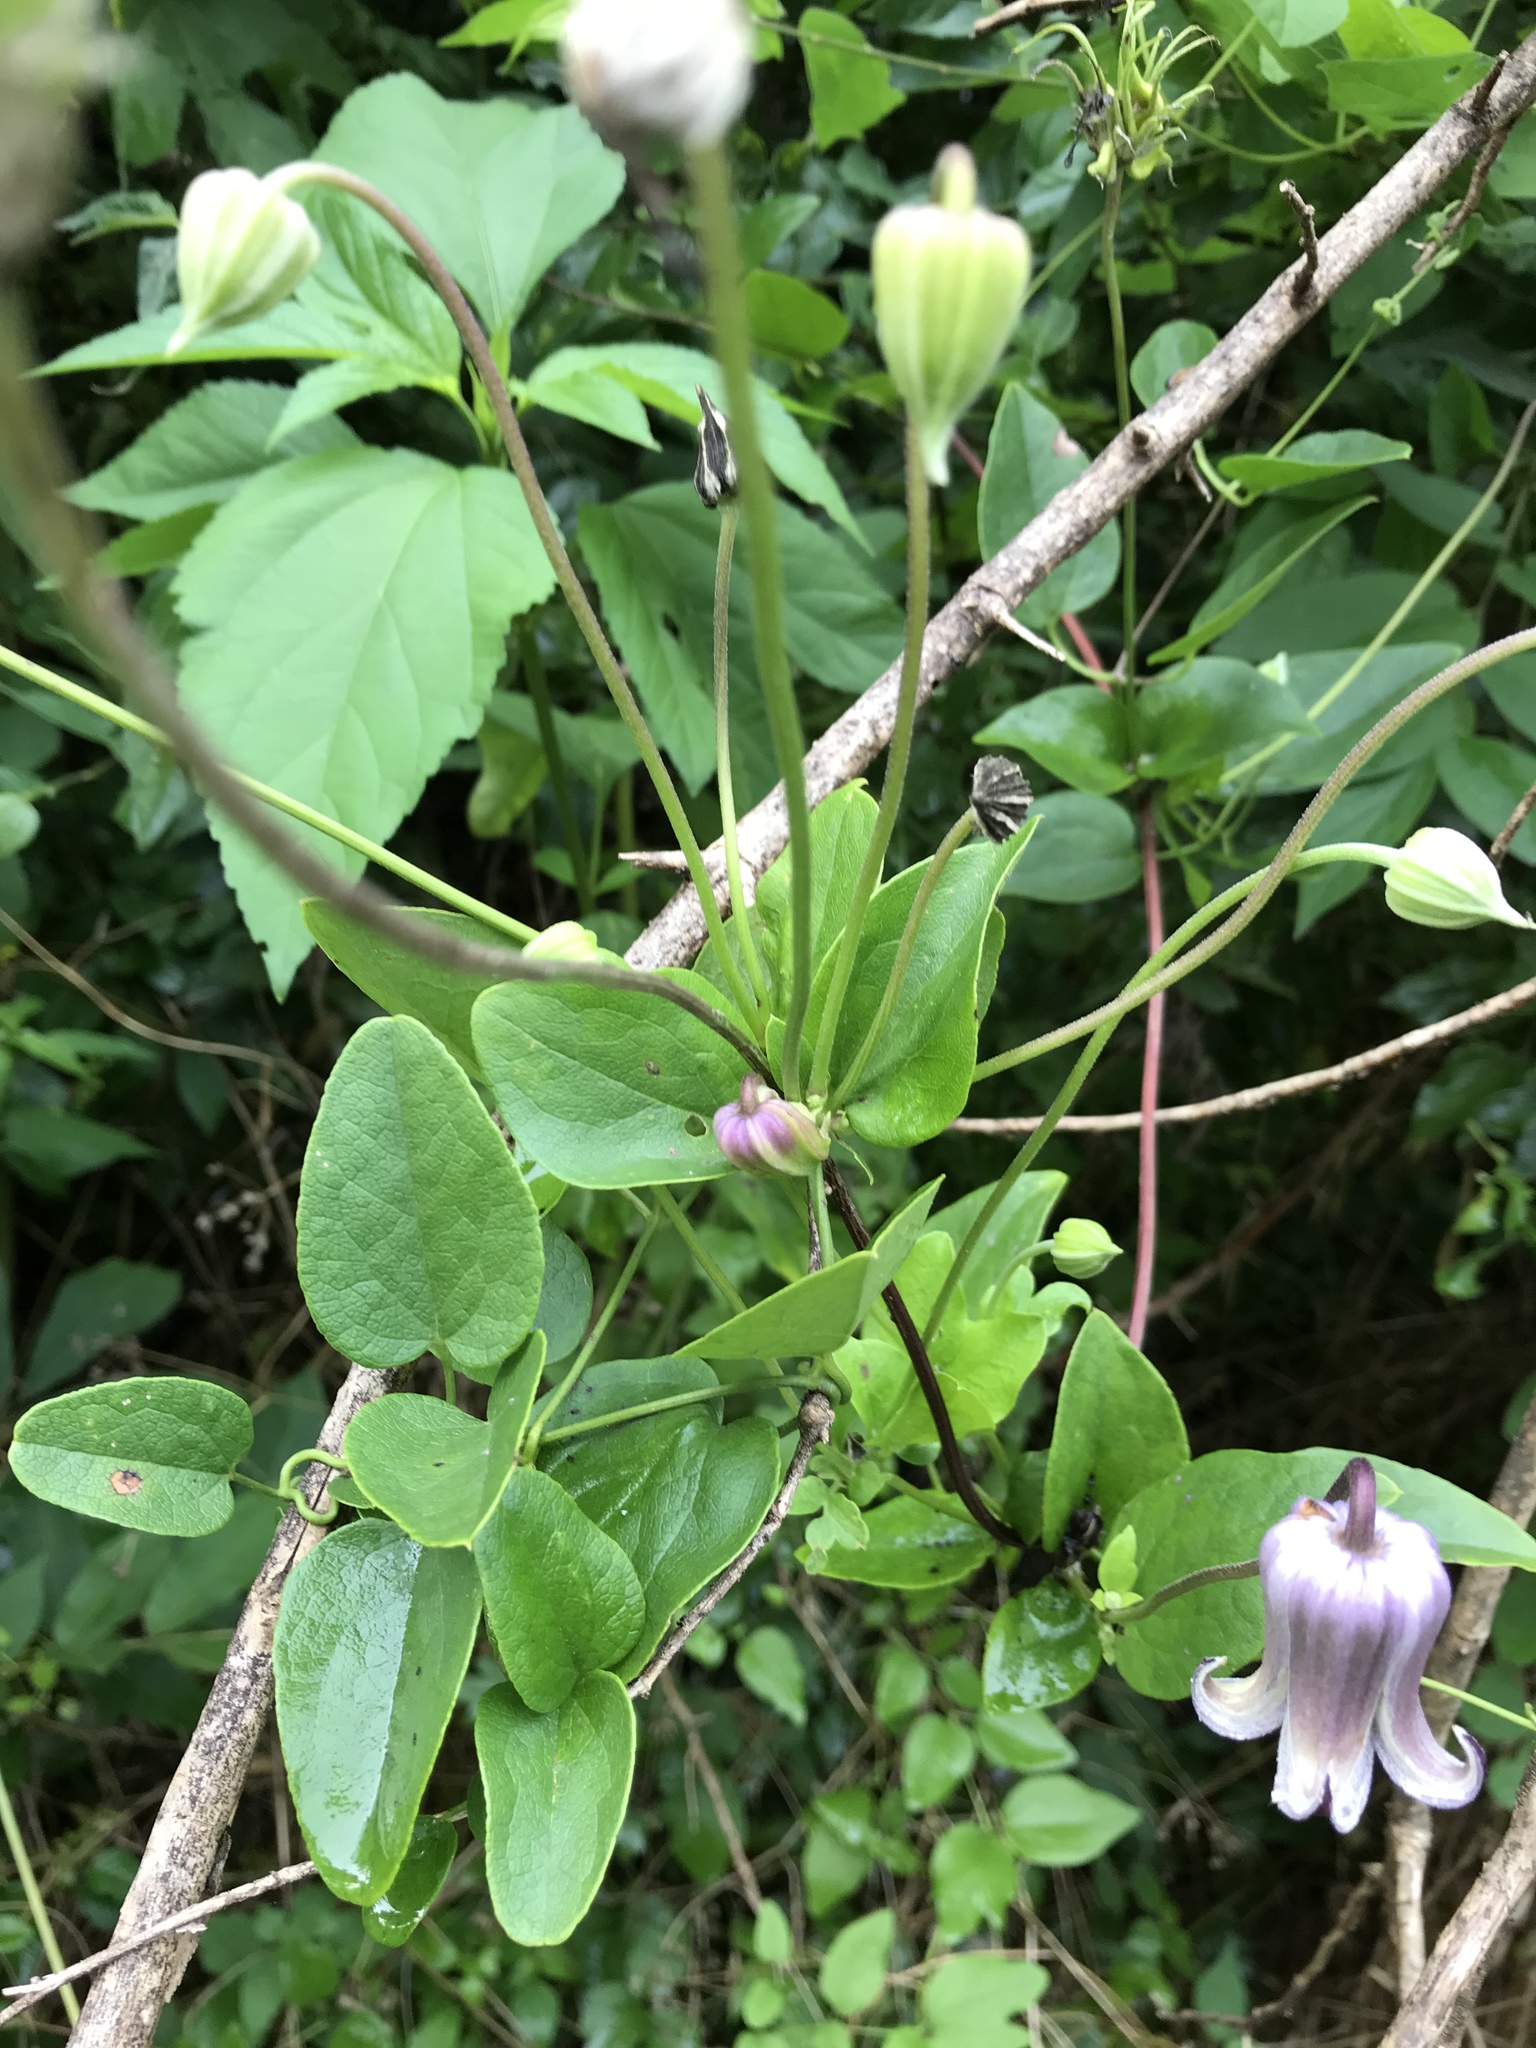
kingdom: Plantae
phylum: Tracheophyta
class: Magnoliopsida
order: Ranunculales
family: Ranunculaceae
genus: Clematis
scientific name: Clematis pitcheri
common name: Bellflower clematis
